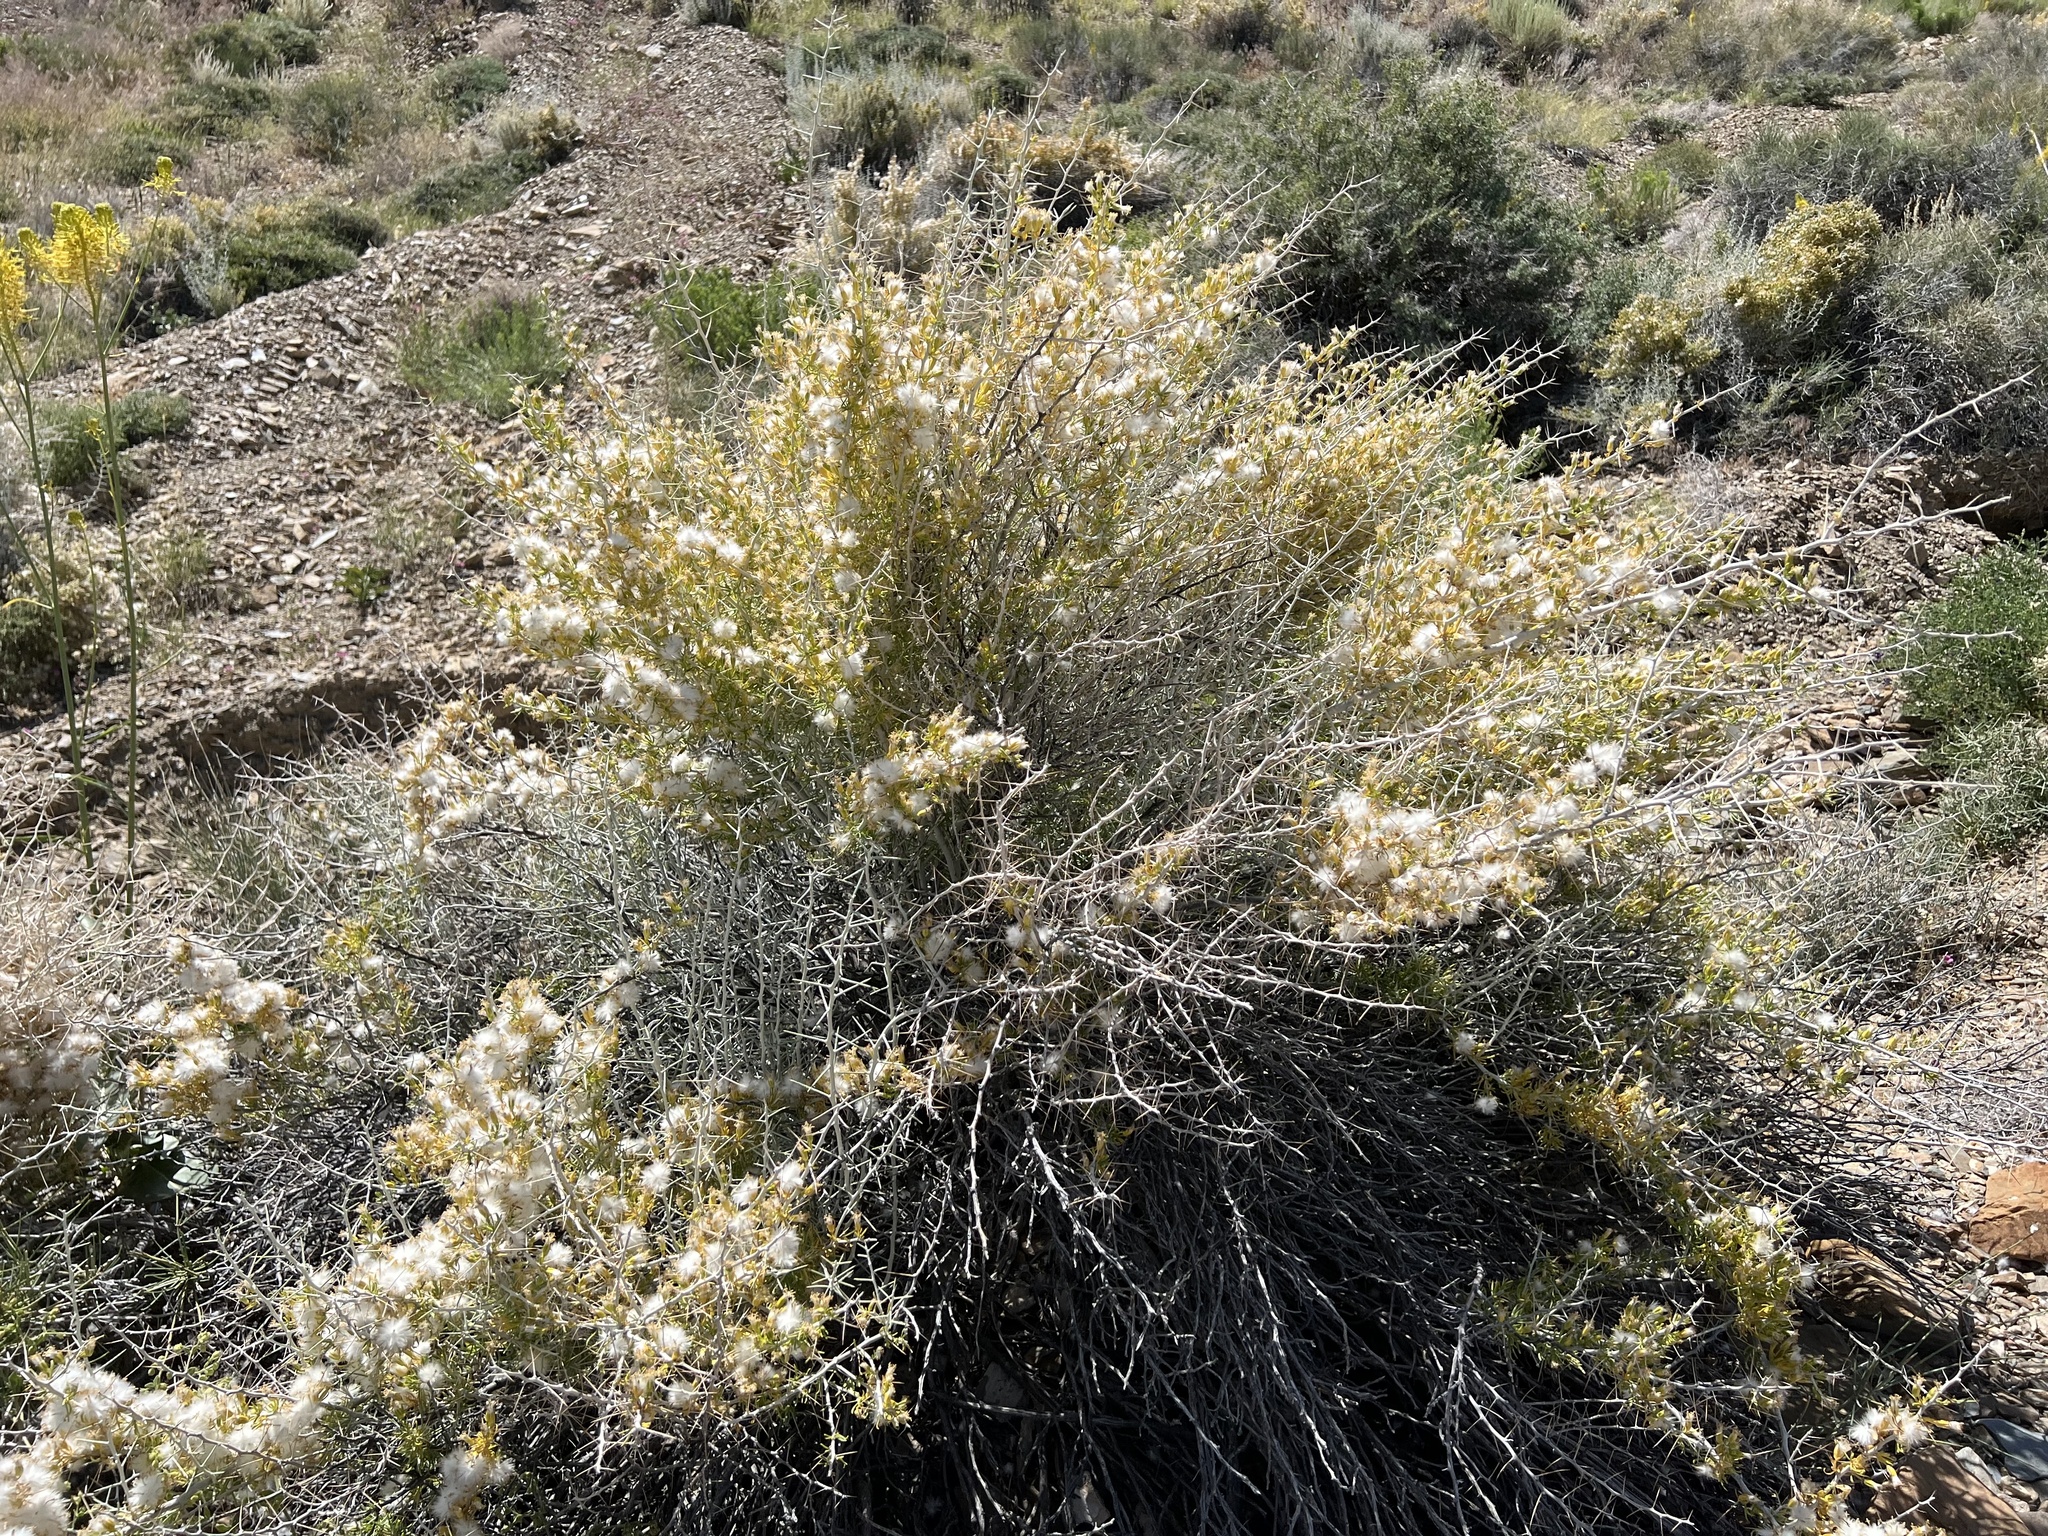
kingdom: Plantae
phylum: Tracheophyta
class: Magnoliopsida
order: Asterales
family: Asteraceae
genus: Tetradymia
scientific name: Tetradymia axillaris
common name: Long-spine horsebrush
